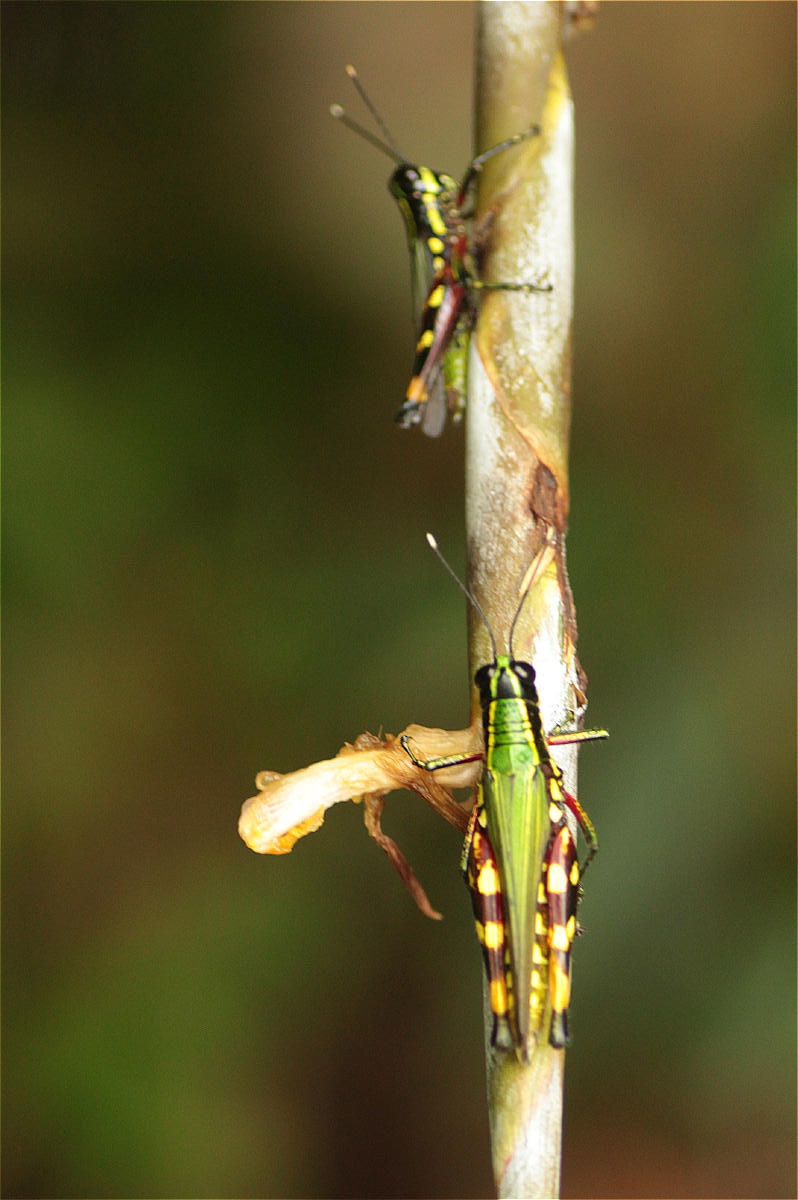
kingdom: Animalia
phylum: Arthropoda
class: Insecta
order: Orthoptera
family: Acrididae
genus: Tetrataenia
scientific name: Tetrataenia surinama
